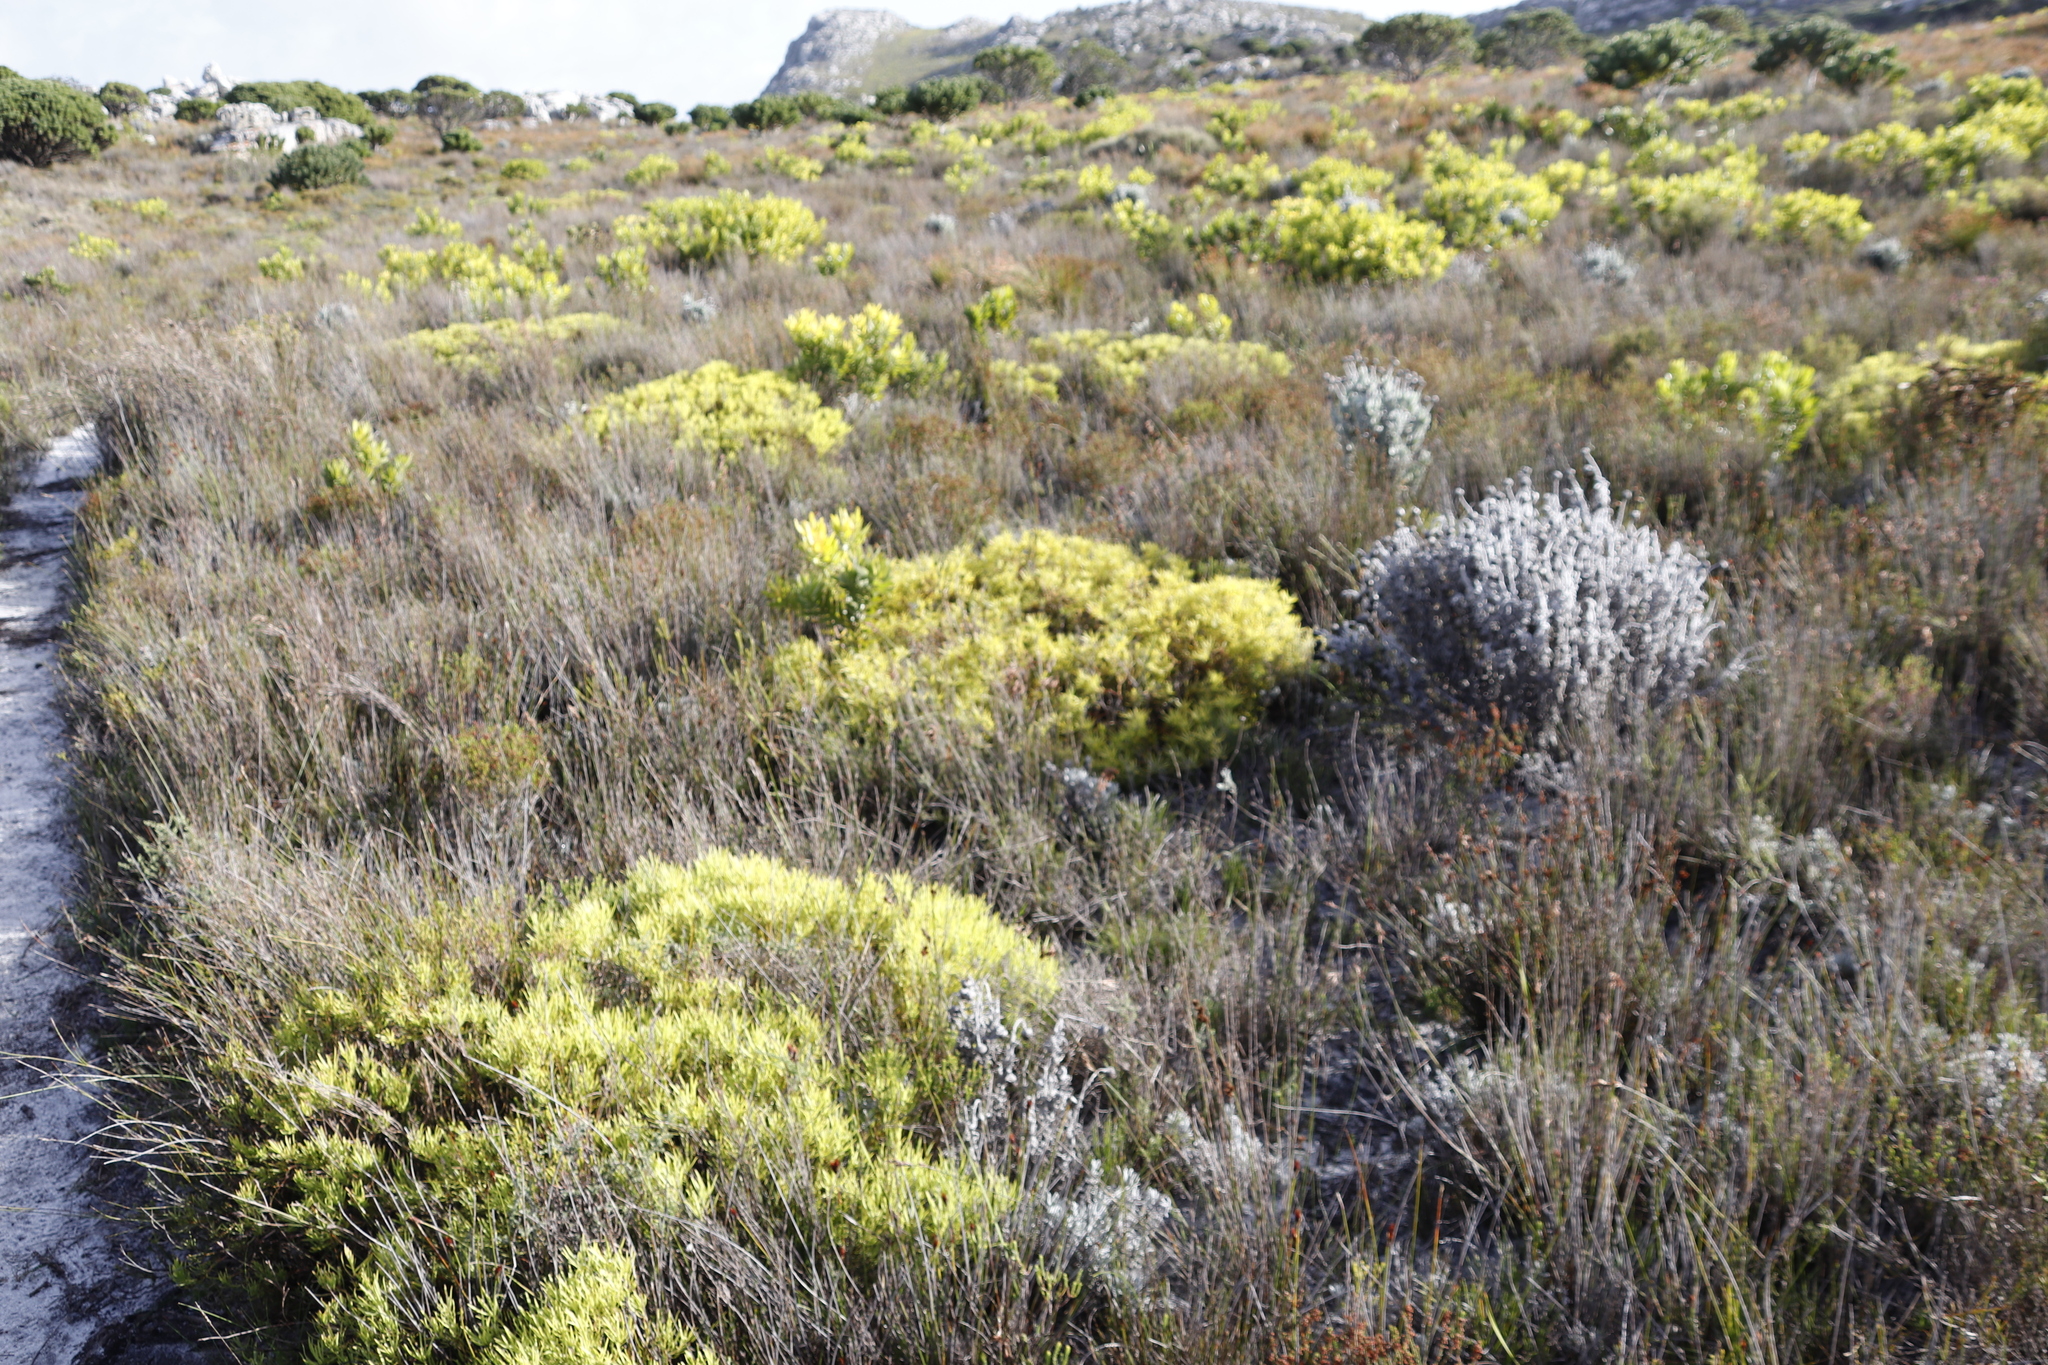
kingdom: Plantae
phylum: Tracheophyta
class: Magnoliopsida
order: Proteales
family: Proteaceae
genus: Leucadendron
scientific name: Leucadendron salignum
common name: Common sunshine conebush
